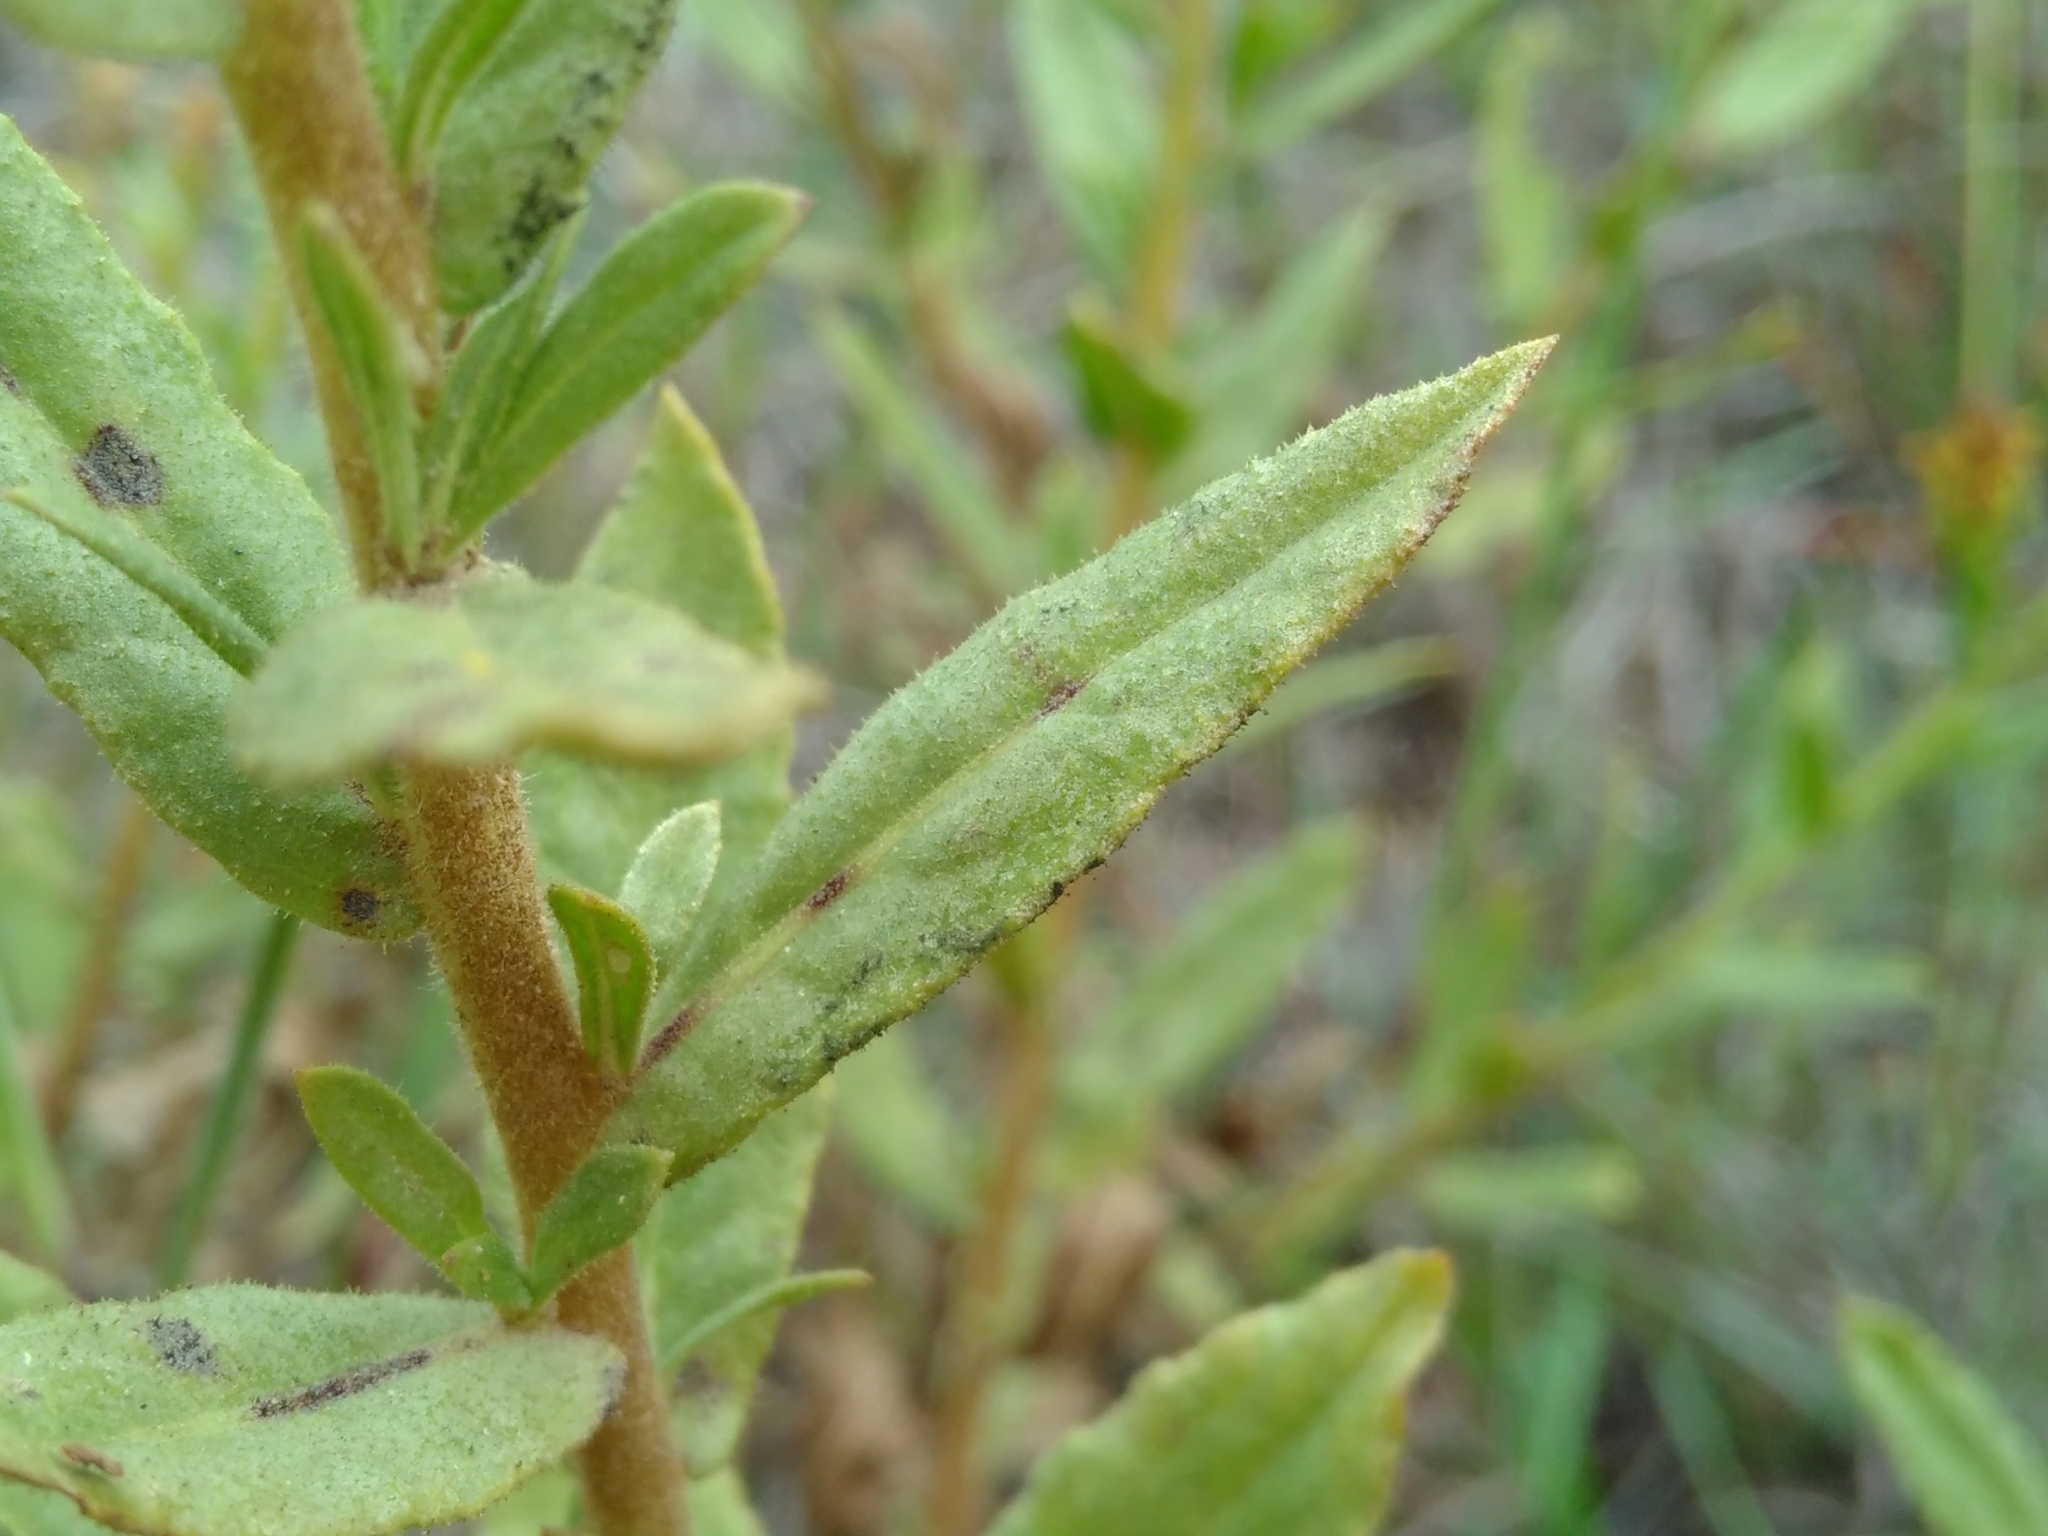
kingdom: Plantae
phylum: Tracheophyta
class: Magnoliopsida
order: Asterales
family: Asteraceae
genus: Dittrichia
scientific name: Dittrichia viscosa
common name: Woody fleabane
